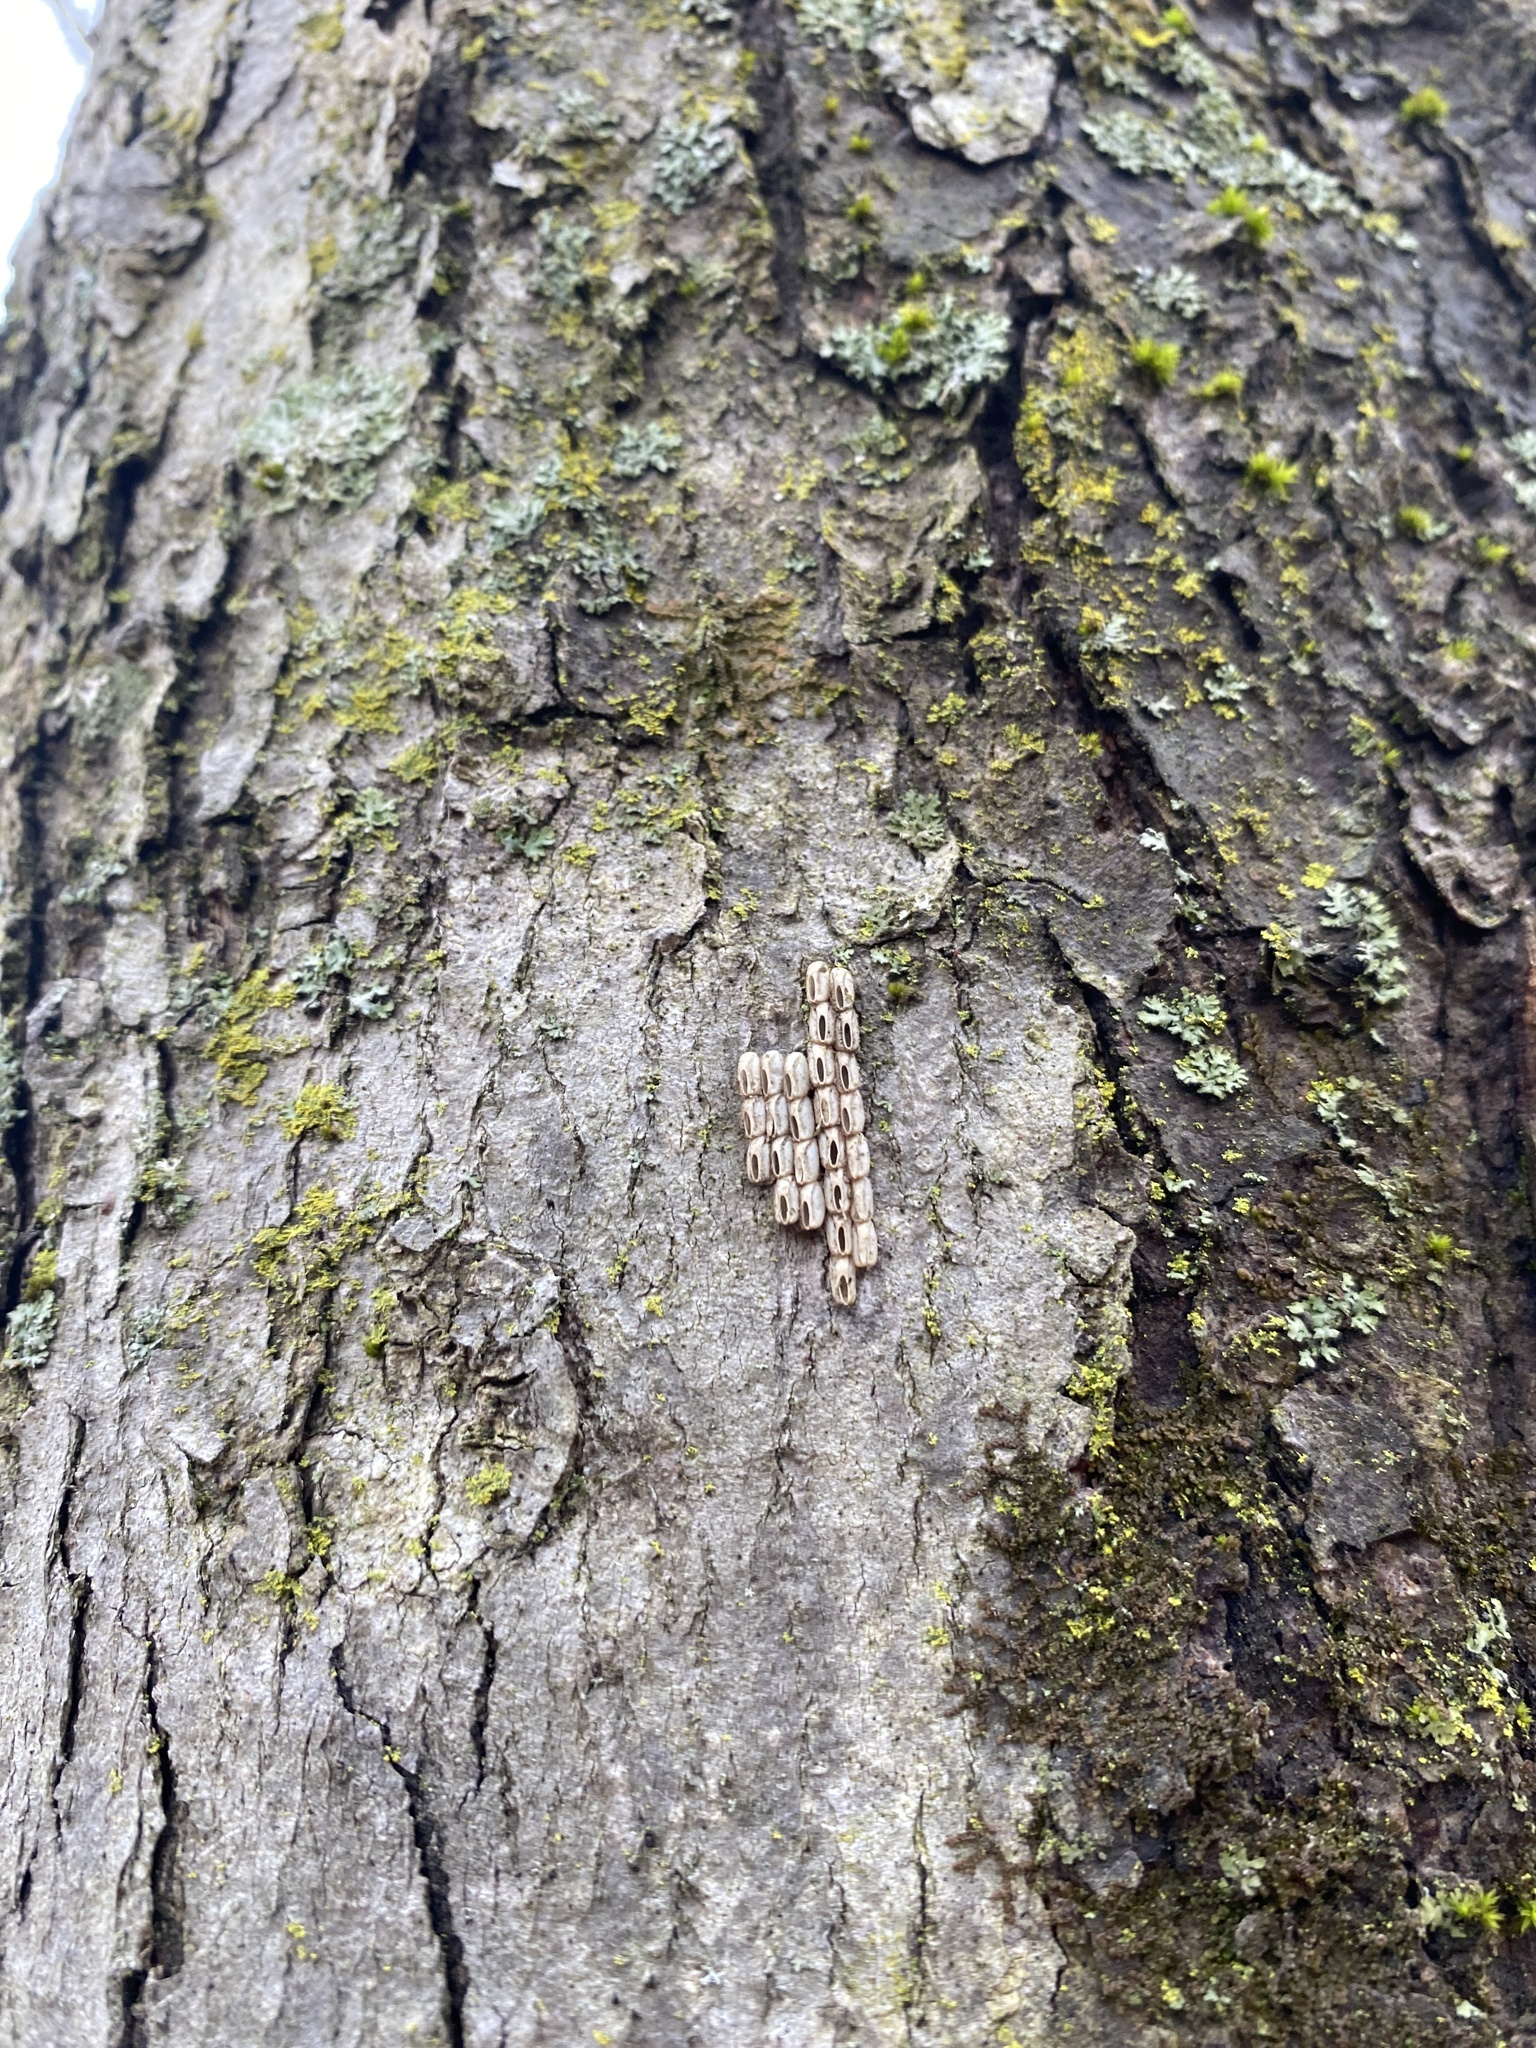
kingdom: Animalia
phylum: Arthropoda
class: Insecta
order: Hemiptera
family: Fulgoridae
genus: Lycorma
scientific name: Lycorma delicatula
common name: Spotted lanternfly
